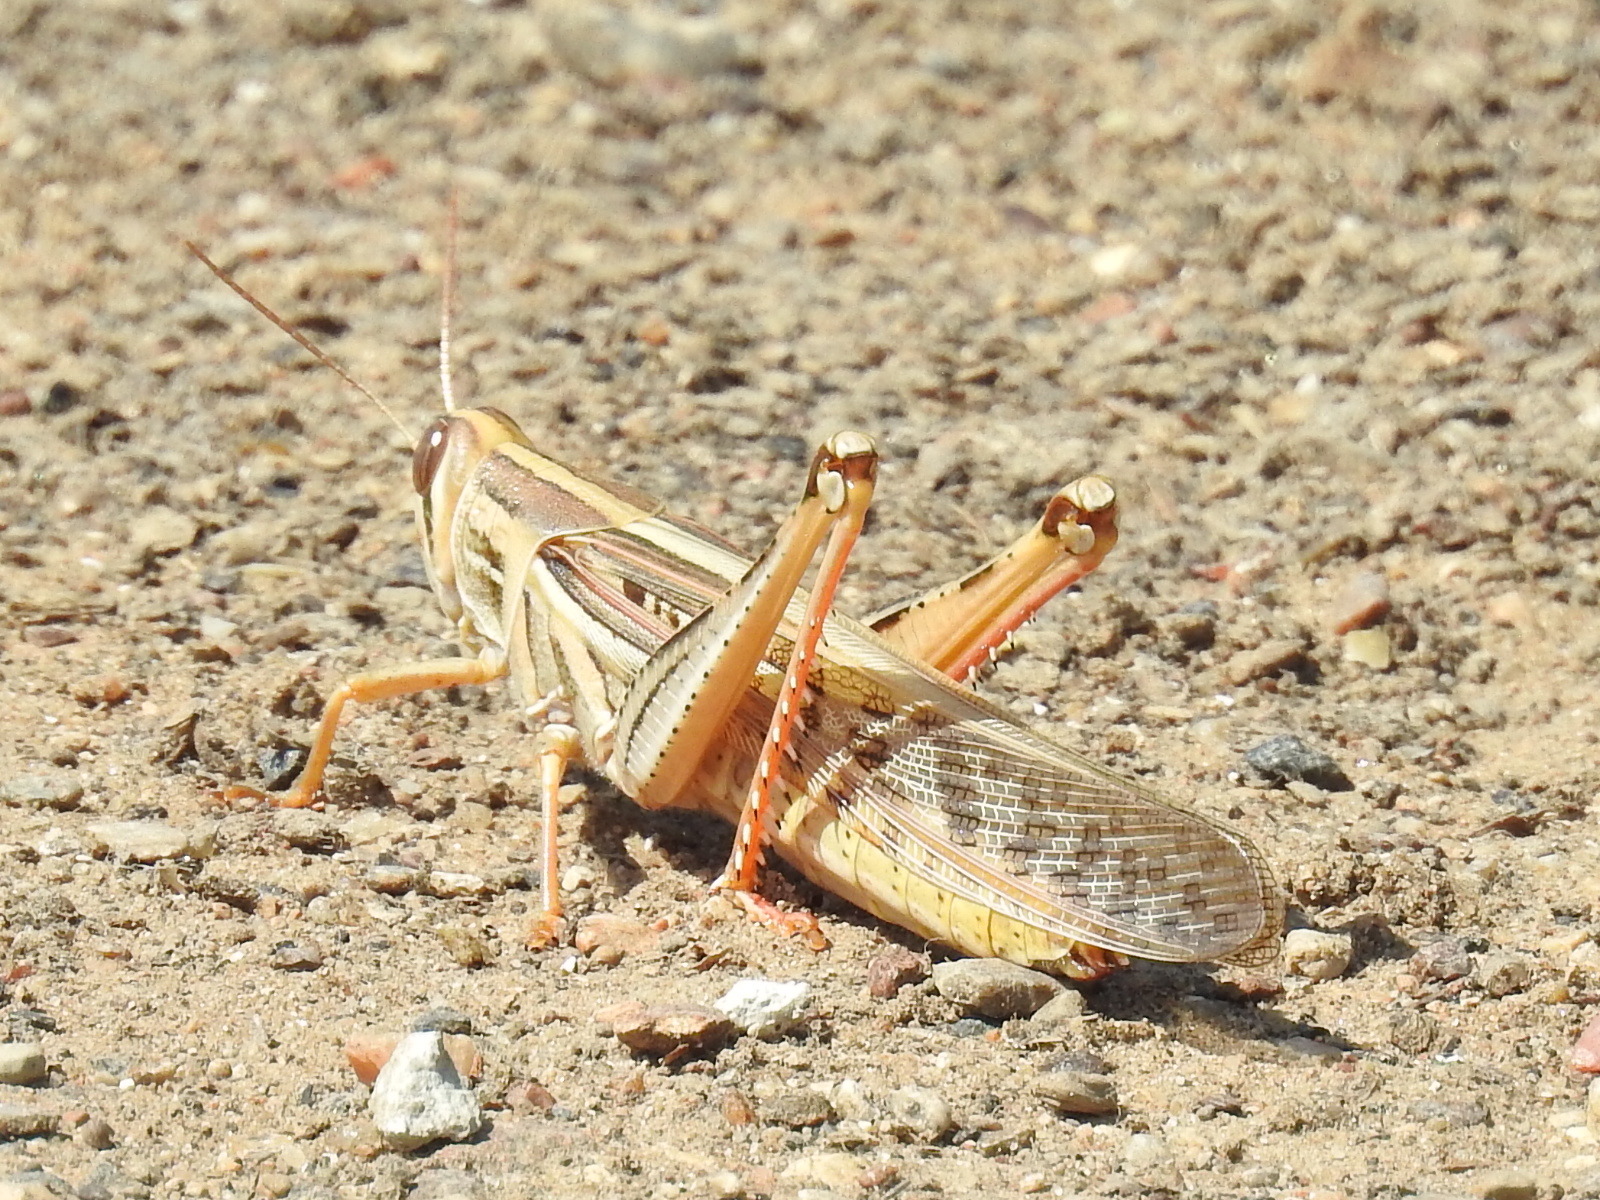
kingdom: Animalia
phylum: Arthropoda
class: Insecta
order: Orthoptera
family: Acrididae
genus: Schistocerca
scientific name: Schistocerca americana
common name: American bird locust
